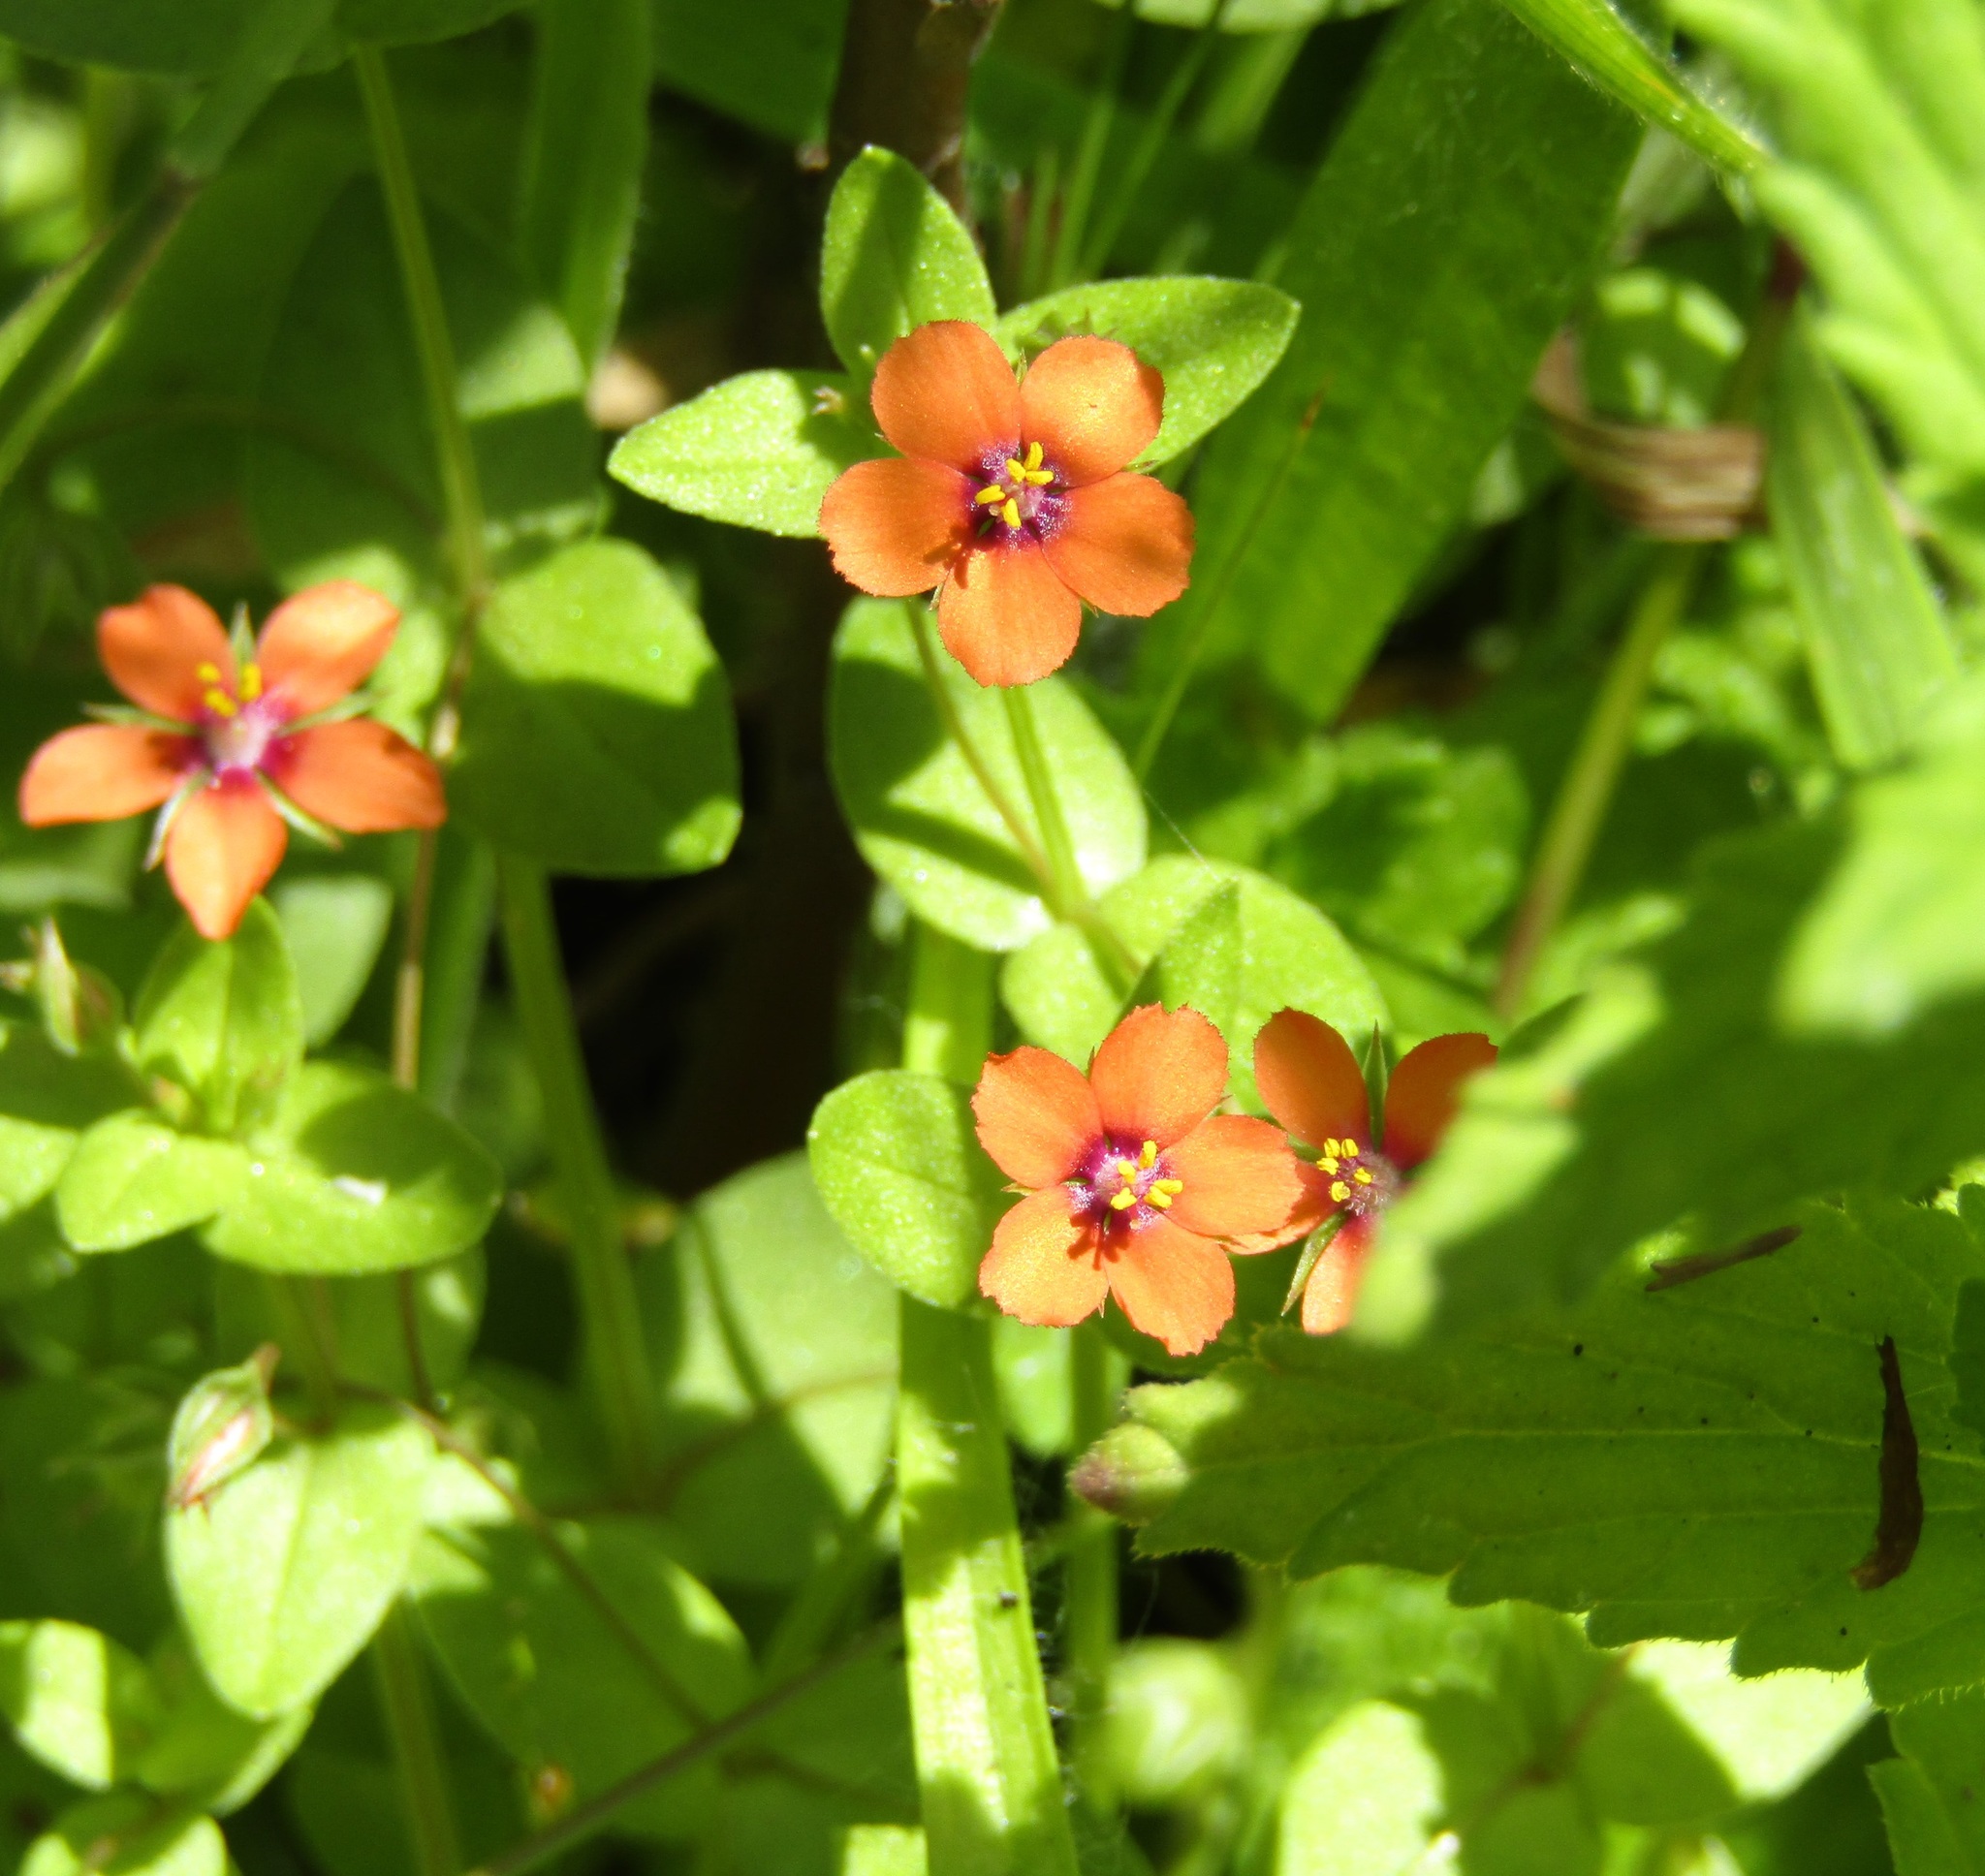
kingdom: Plantae
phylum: Tracheophyta
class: Magnoliopsida
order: Ericales
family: Primulaceae
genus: Lysimachia
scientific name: Lysimachia arvensis
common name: Scarlet pimpernel
